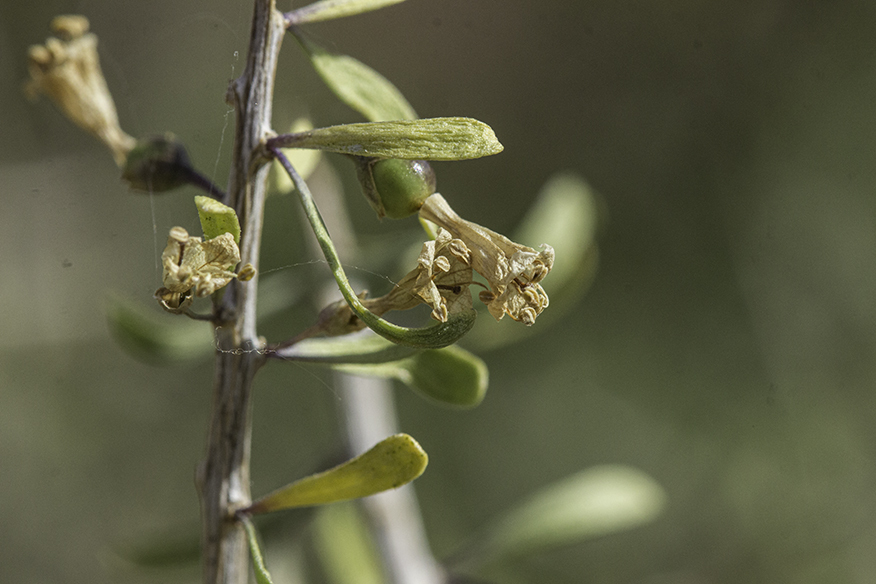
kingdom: Plantae
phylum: Tracheophyta
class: Magnoliopsida
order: Solanales
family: Solanaceae
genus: Lycium
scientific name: Lycium andersonii
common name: Water-jacket
